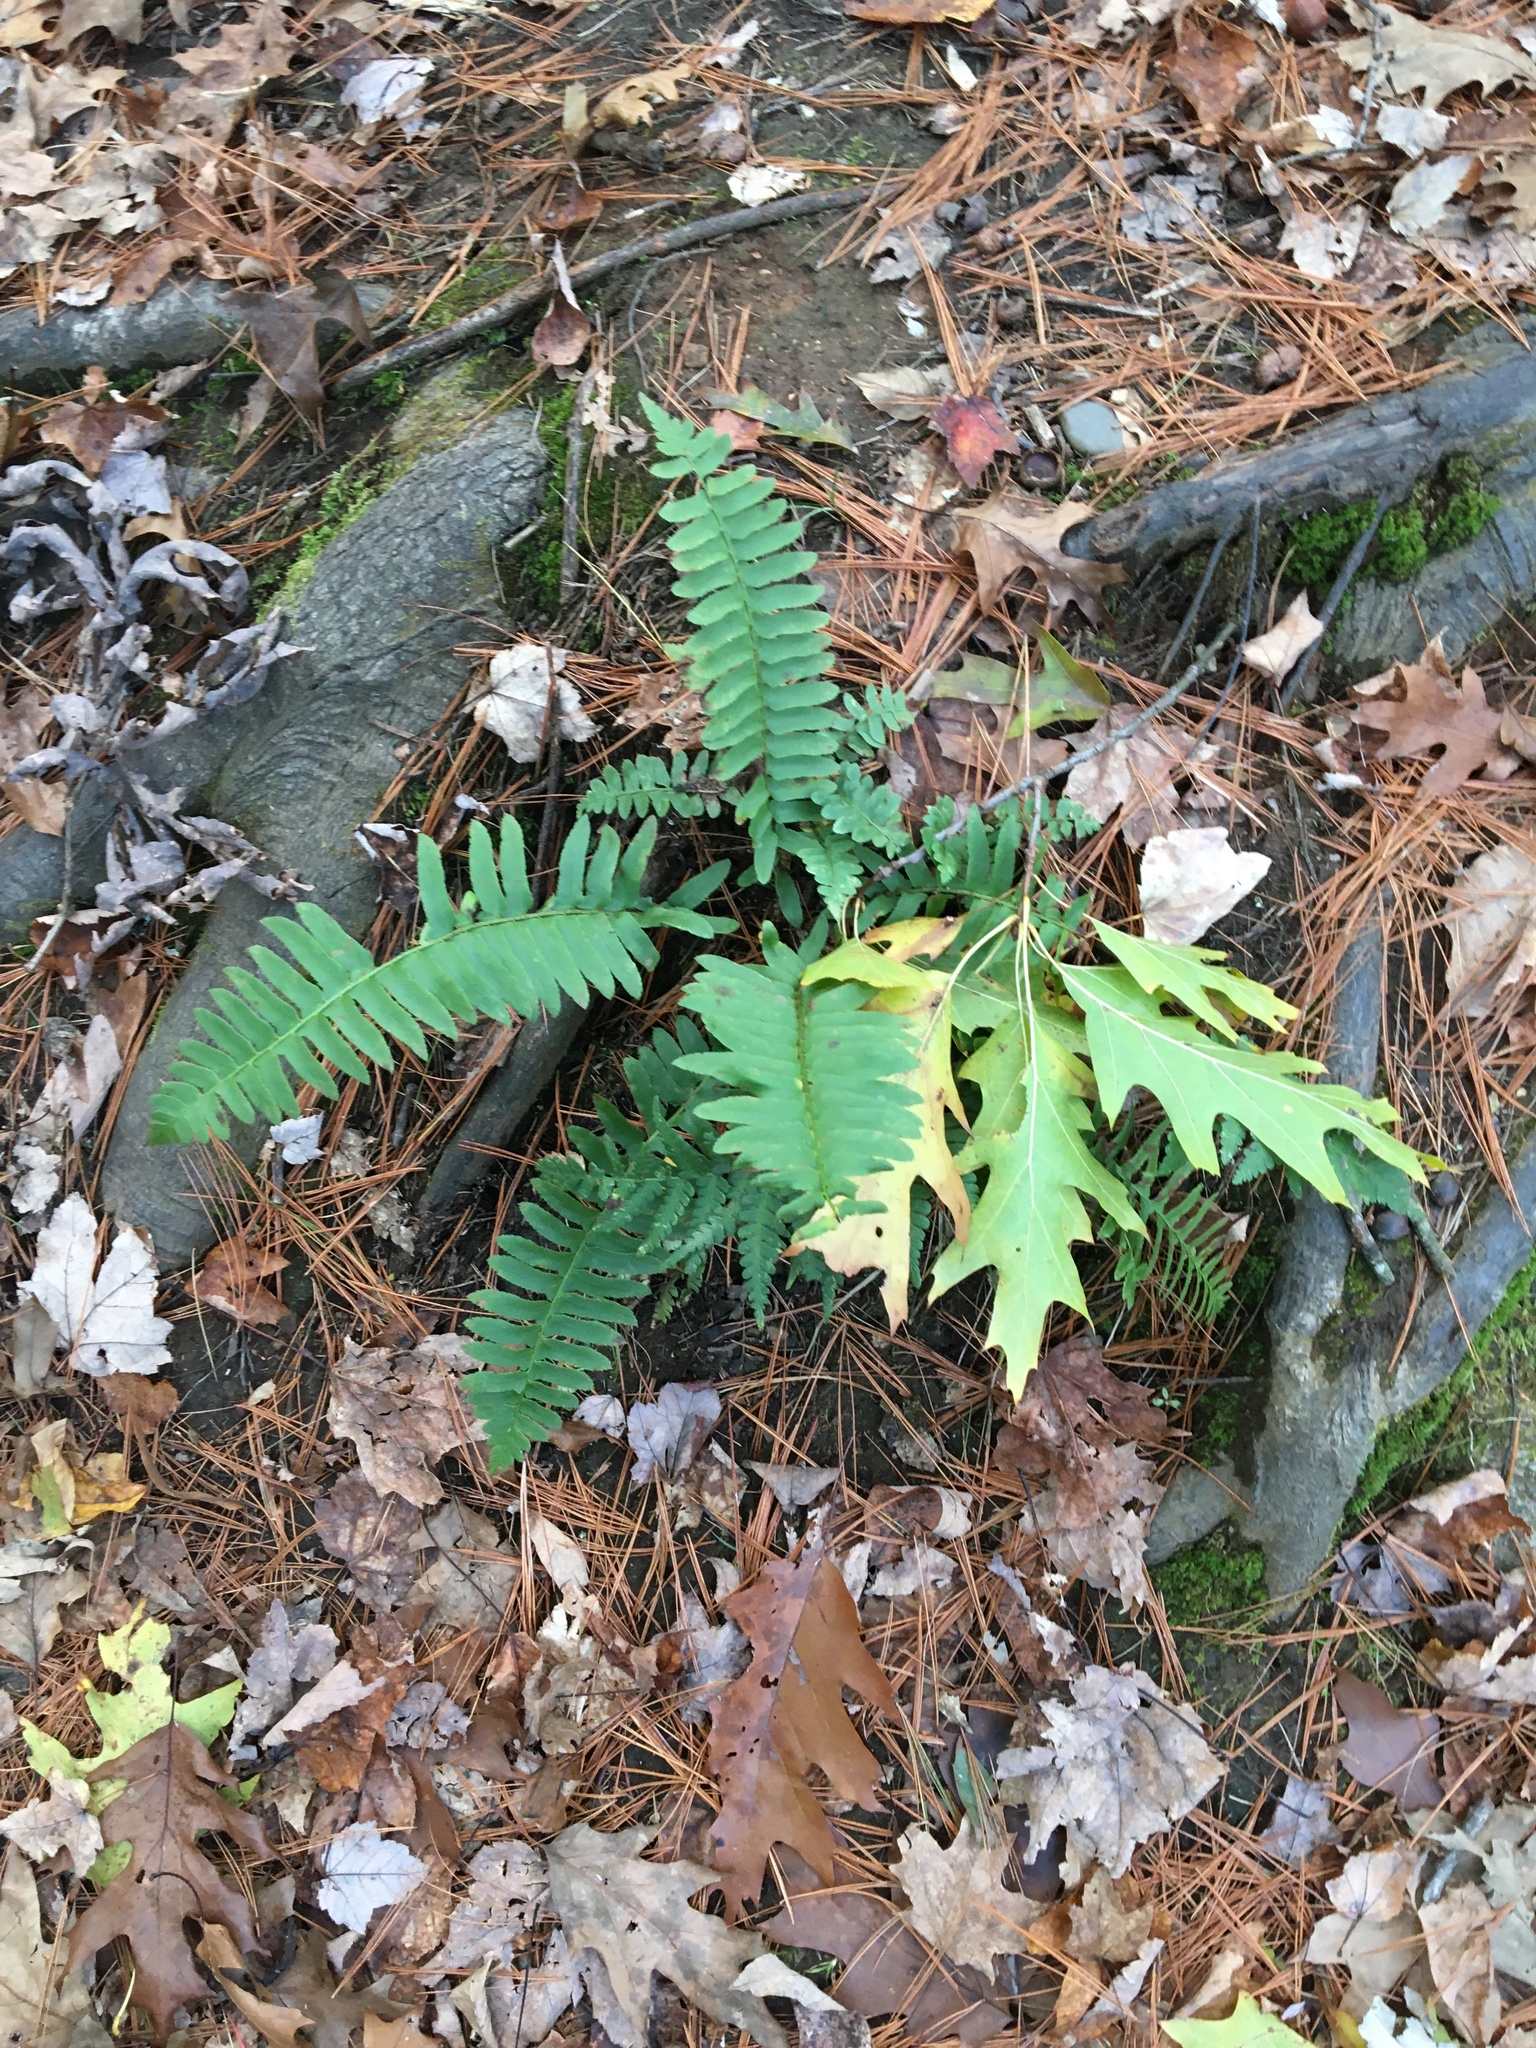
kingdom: Plantae
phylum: Tracheophyta
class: Polypodiopsida
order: Polypodiales
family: Dryopteridaceae
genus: Polystichum
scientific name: Polystichum acrostichoides
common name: Christmas fern
